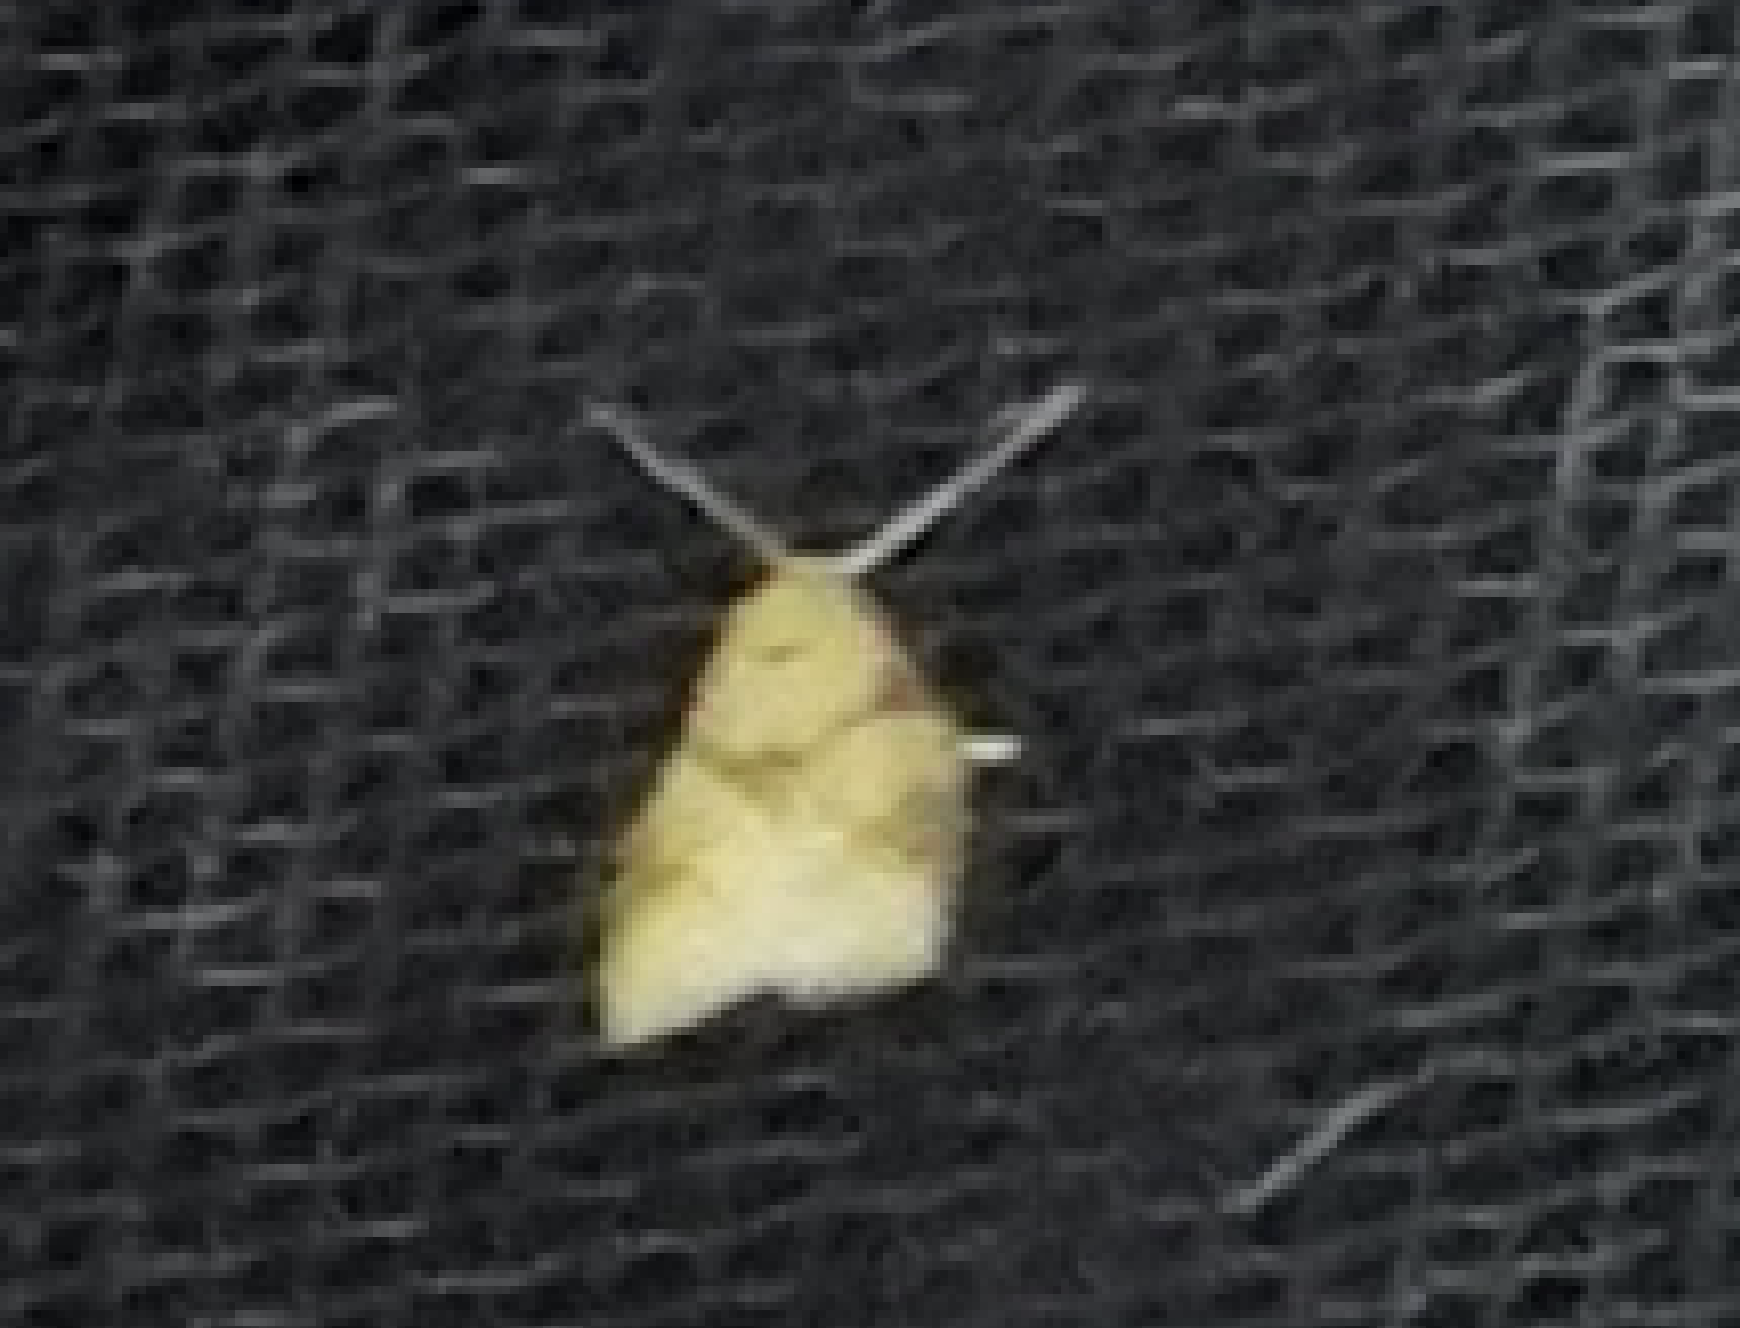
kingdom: Animalia
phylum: Arthropoda
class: Insecta
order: Lepidoptera
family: Tortricidae
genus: Cenopis
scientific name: Cenopis reticulatana
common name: Reticulated fruitworm moth
